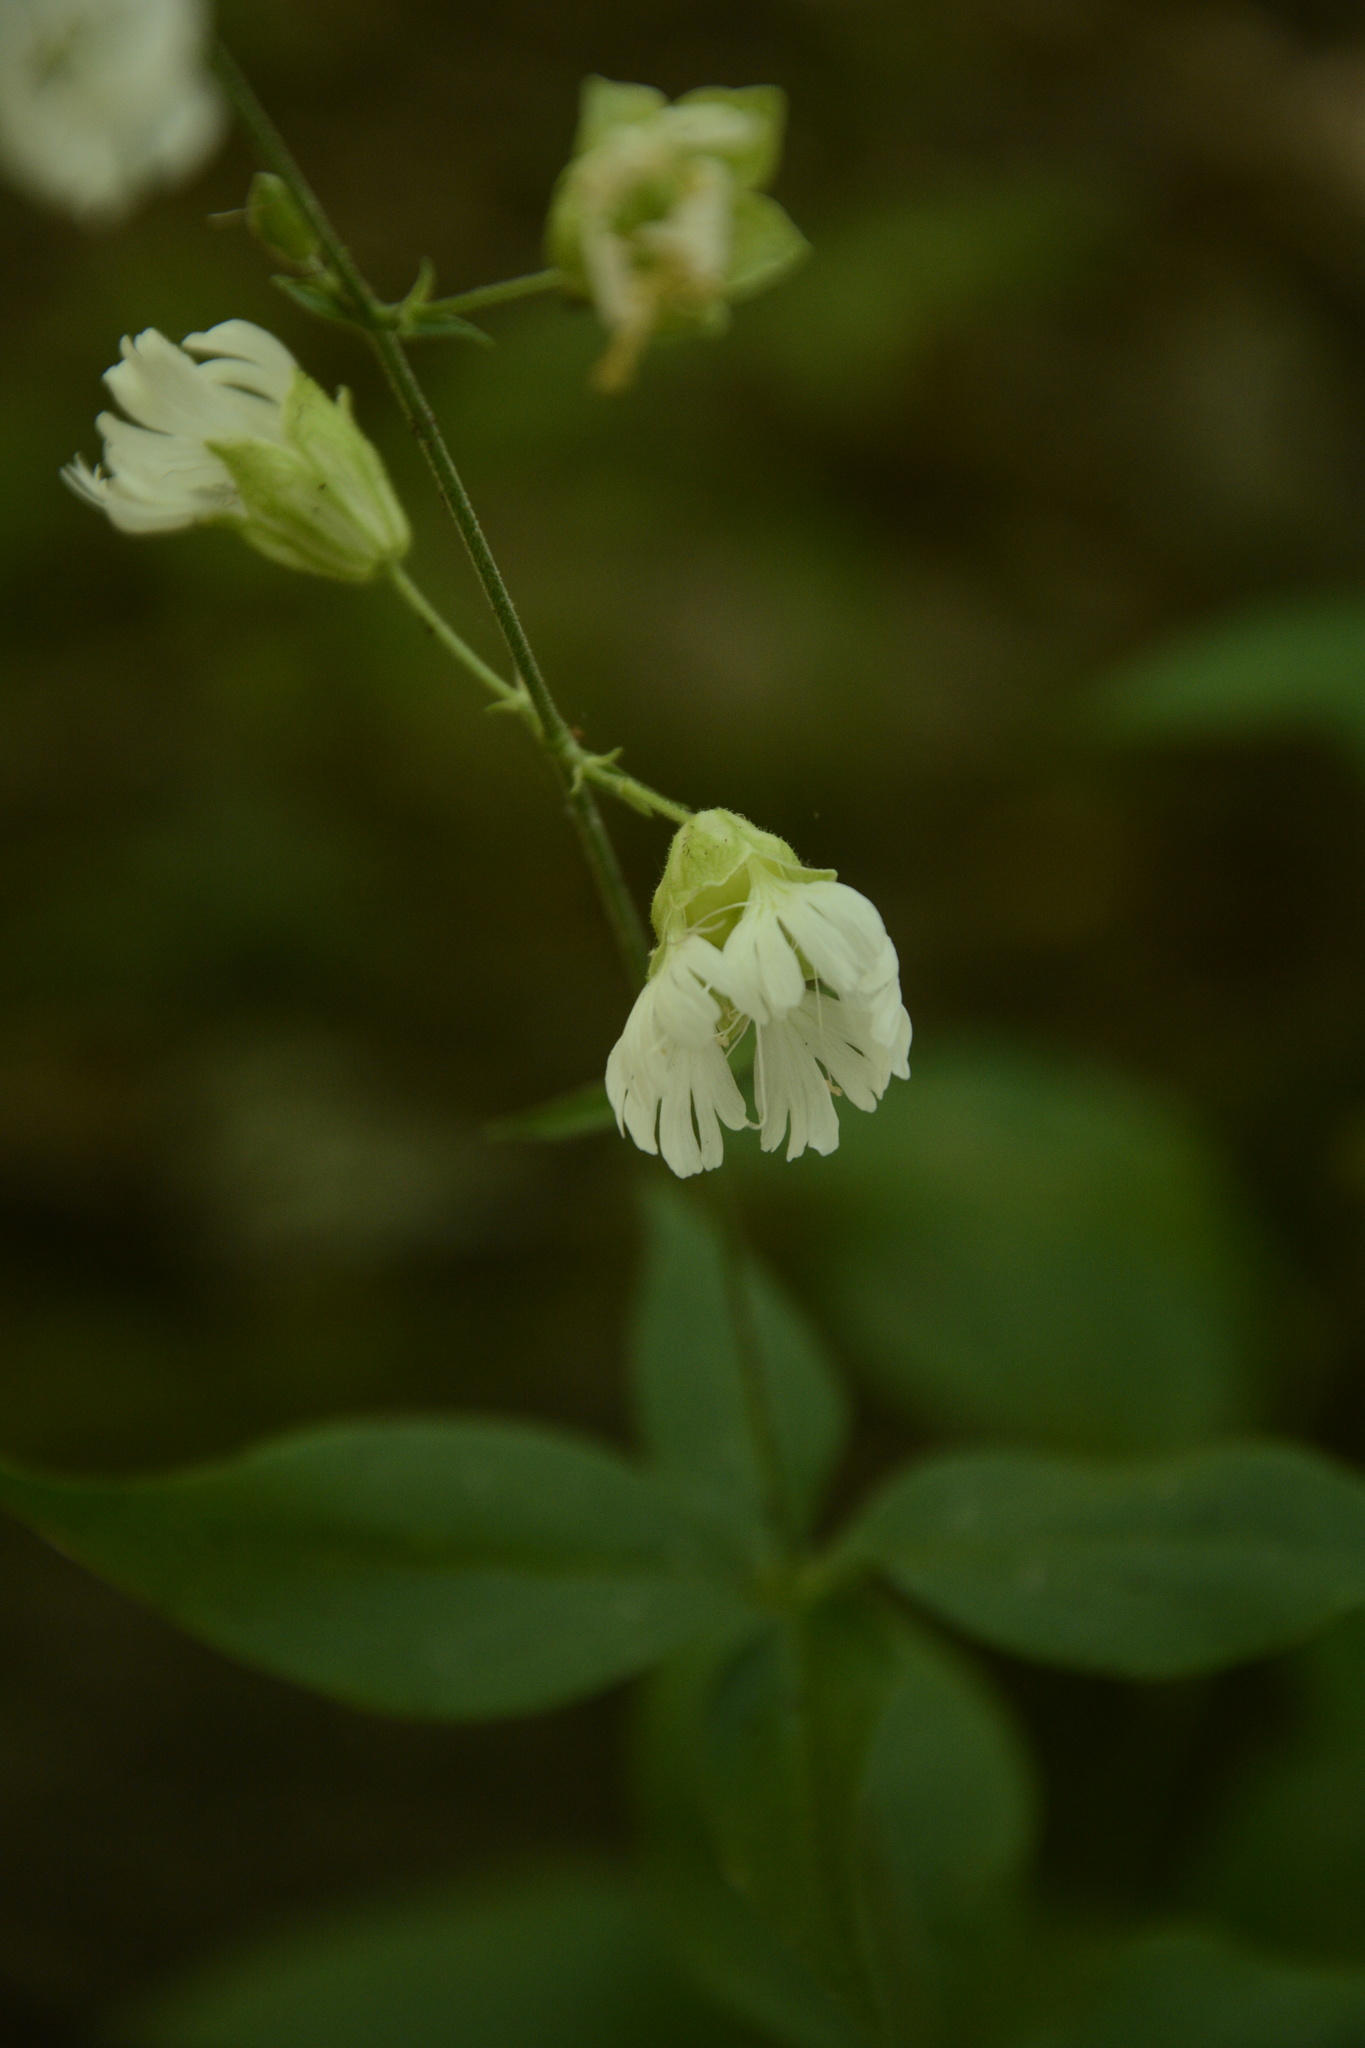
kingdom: Plantae
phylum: Tracheophyta
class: Magnoliopsida
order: Caryophyllales
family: Caryophyllaceae
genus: Silene
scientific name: Silene stellata
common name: Starry campion
